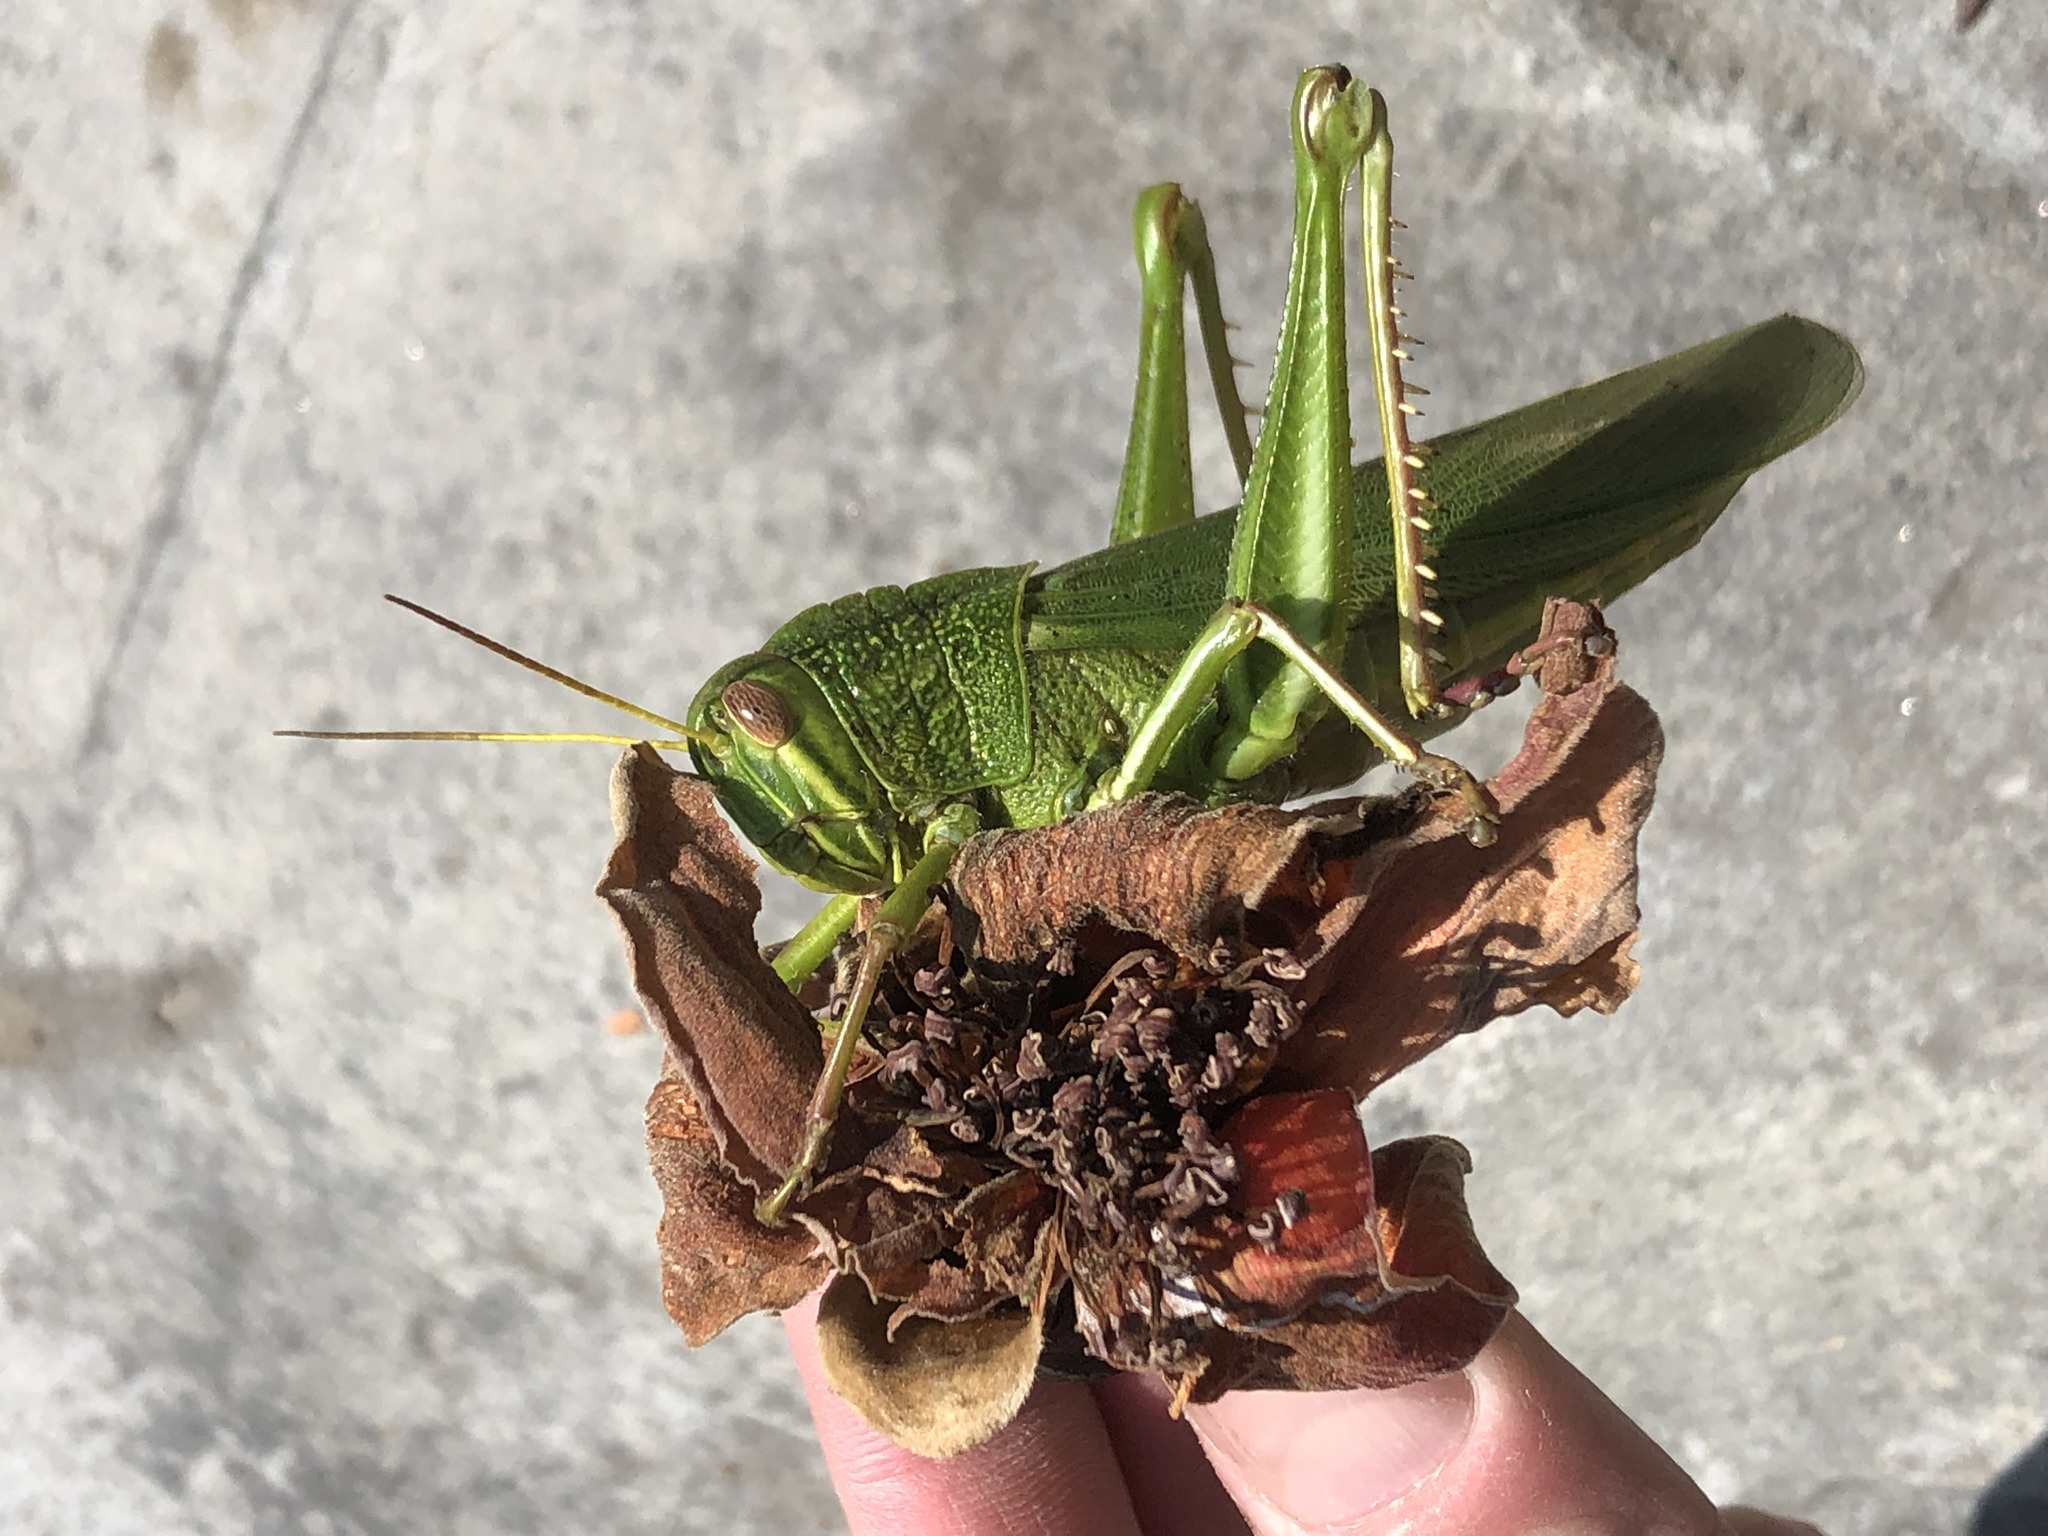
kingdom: Animalia
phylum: Arthropoda
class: Insecta
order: Orthoptera
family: Acrididae
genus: Chondracris
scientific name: Chondracris rosea
